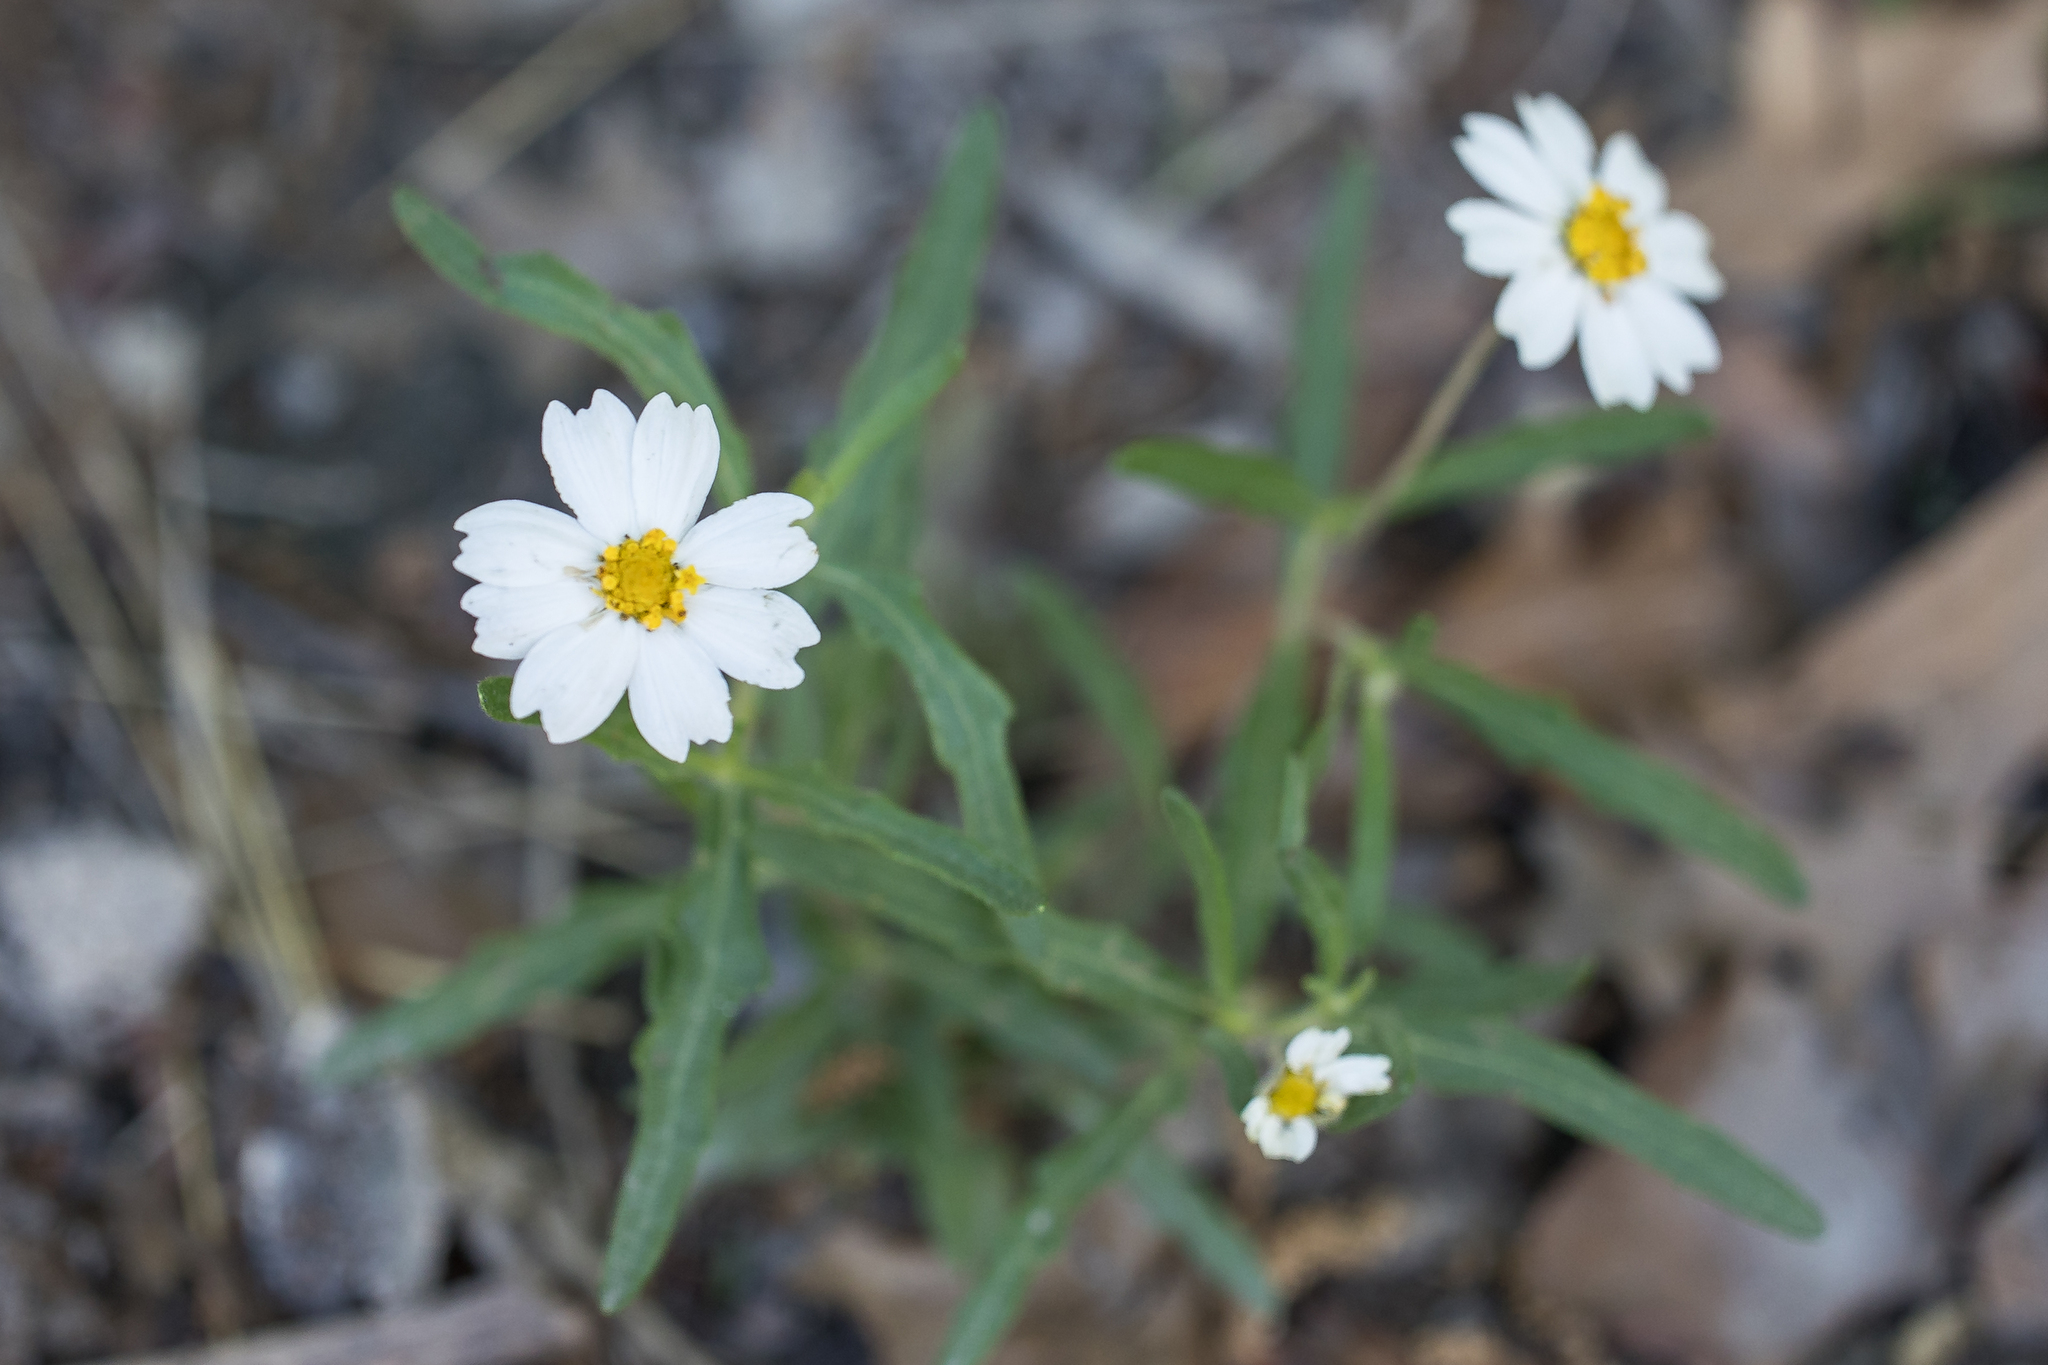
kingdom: Plantae
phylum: Tracheophyta
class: Magnoliopsida
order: Asterales
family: Asteraceae
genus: Melampodium
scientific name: Melampodium leucanthum
